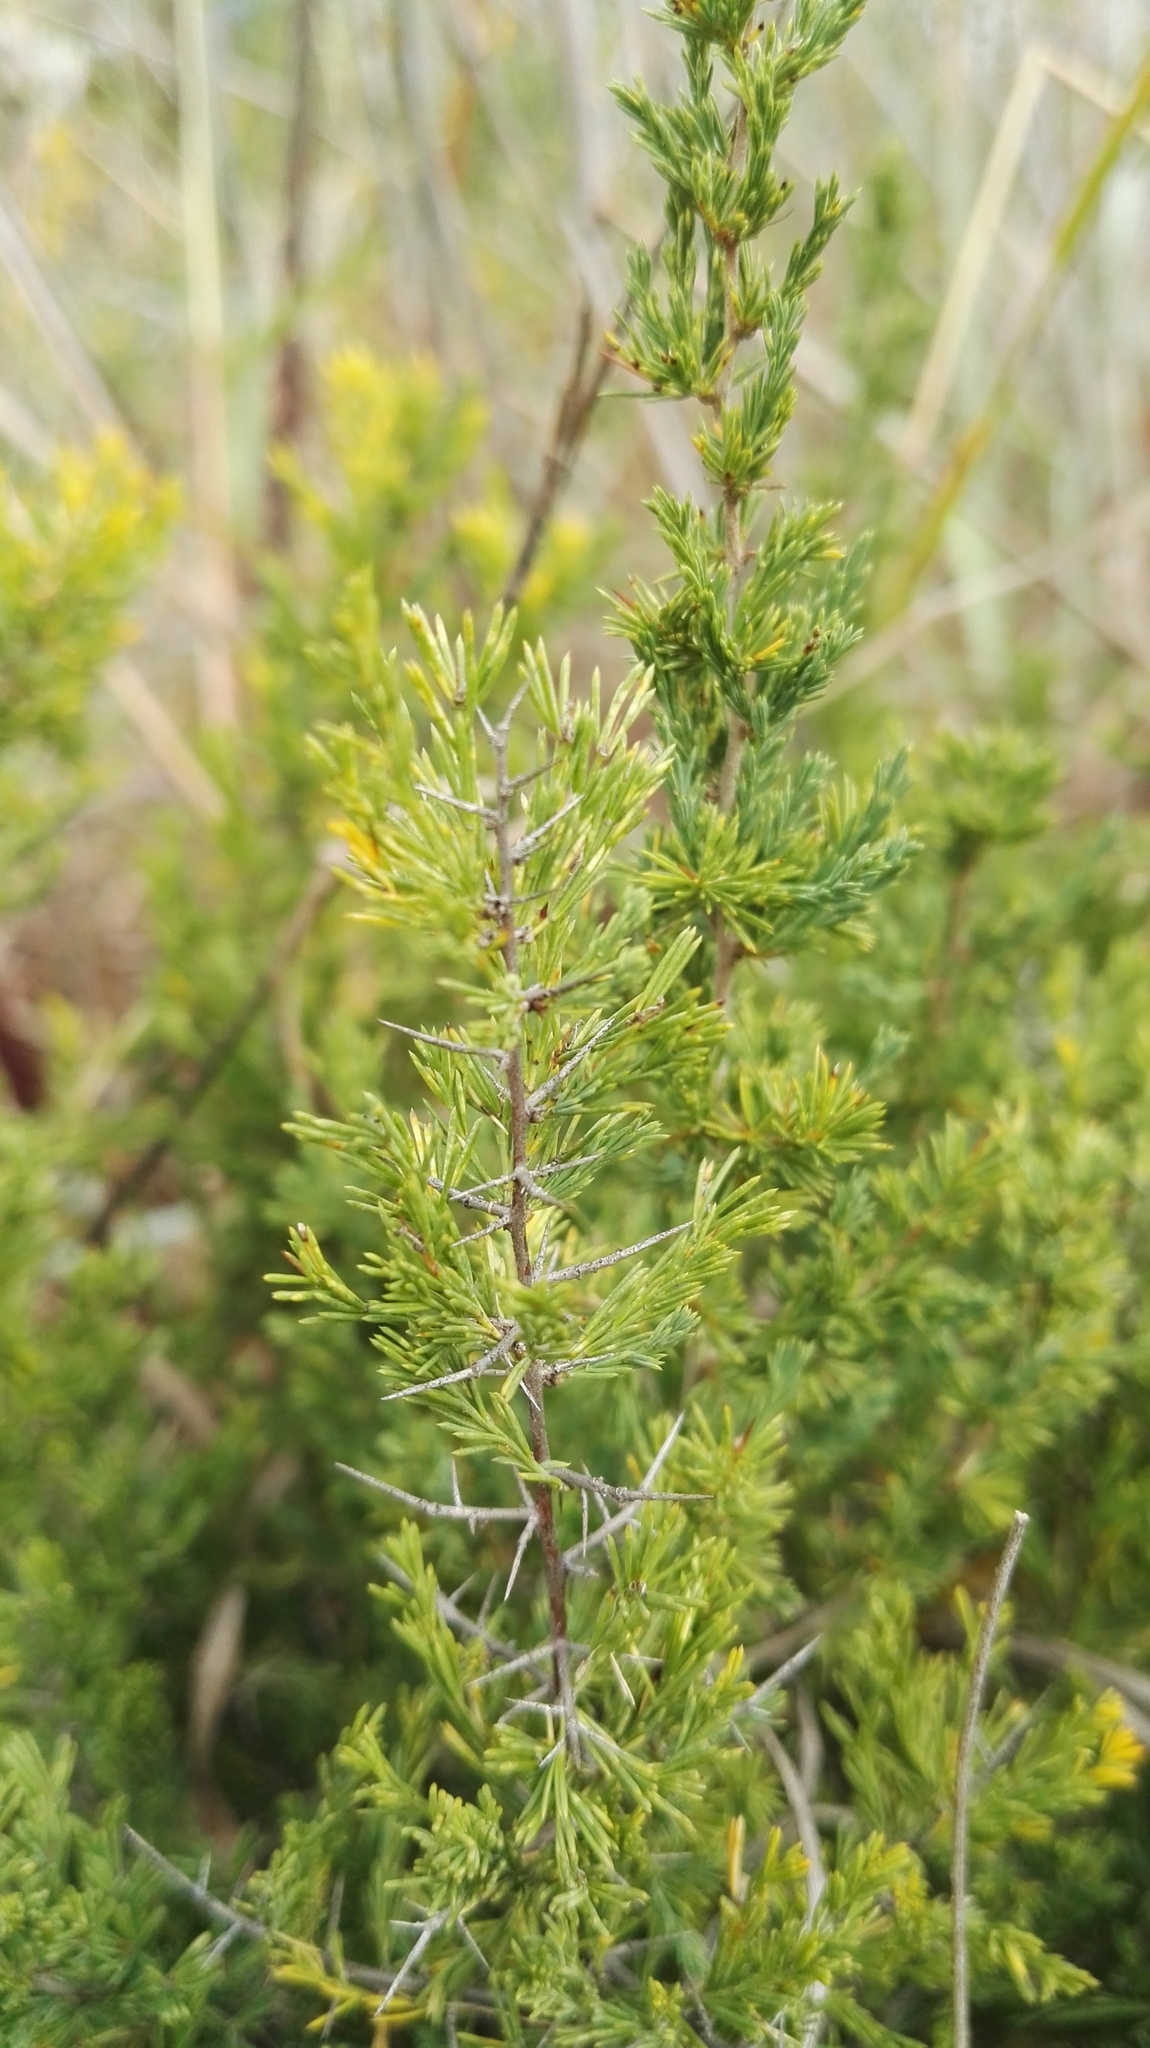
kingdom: Plantae
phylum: Tracheophyta
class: Liliopsida
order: Asparagales
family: Asparagaceae
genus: Asparagus
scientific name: Asparagus suaveolens
